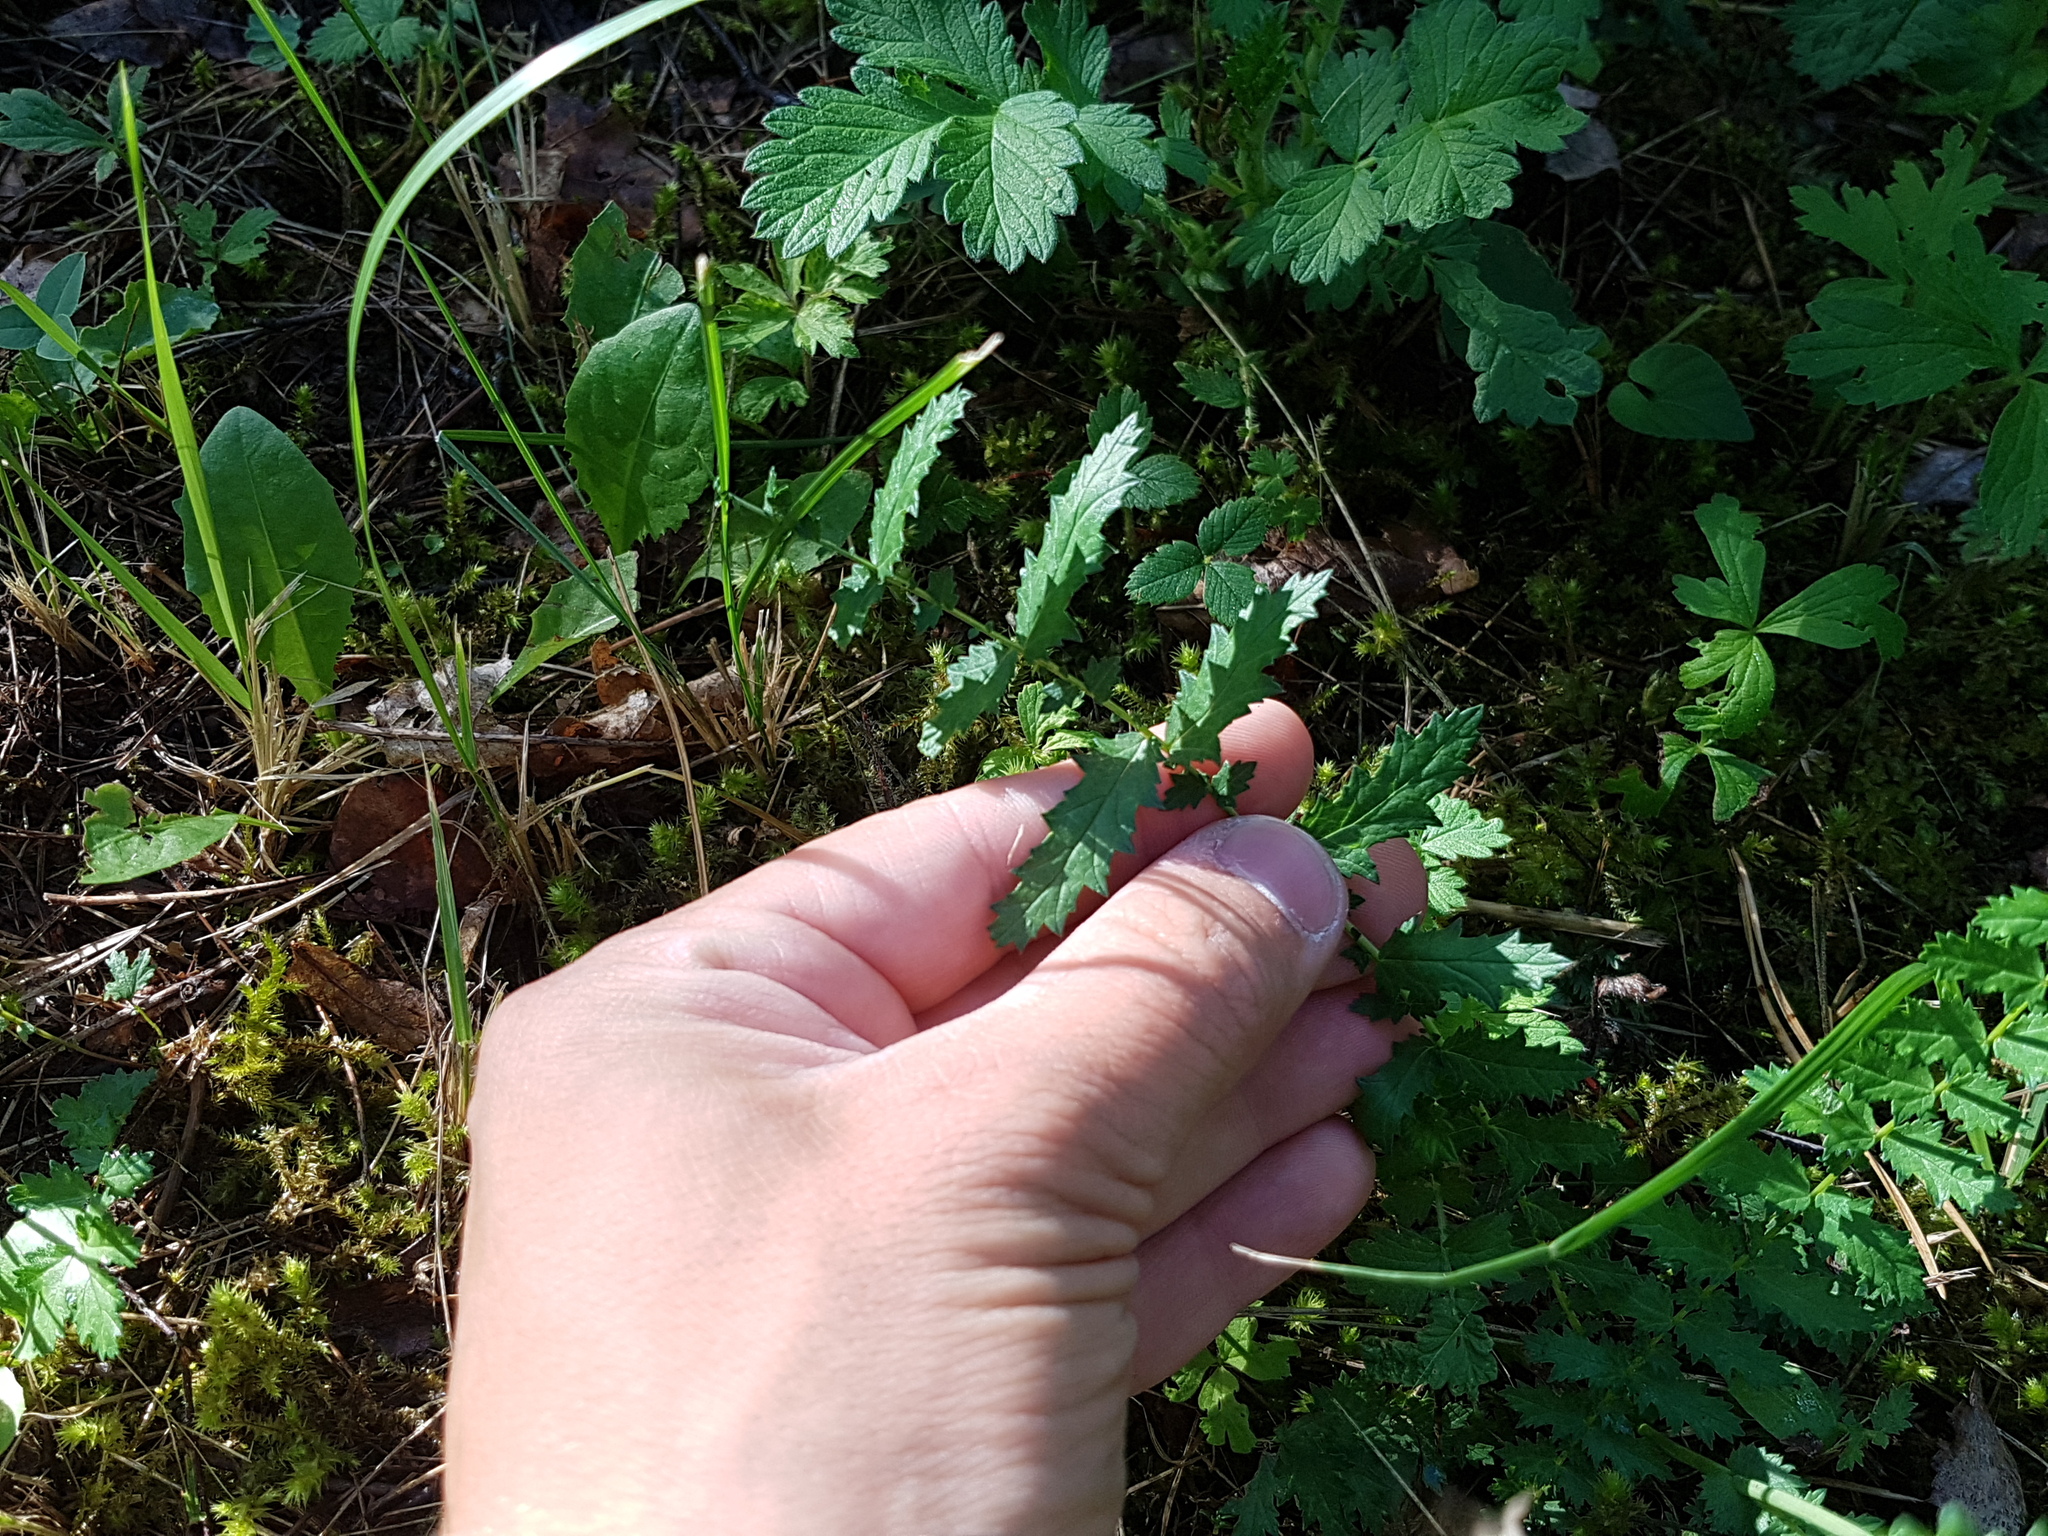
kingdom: Plantae
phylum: Tracheophyta
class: Magnoliopsida
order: Rosales
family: Rosaceae
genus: Filipendula
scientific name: Filipendula vulgaris
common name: Dropwort
